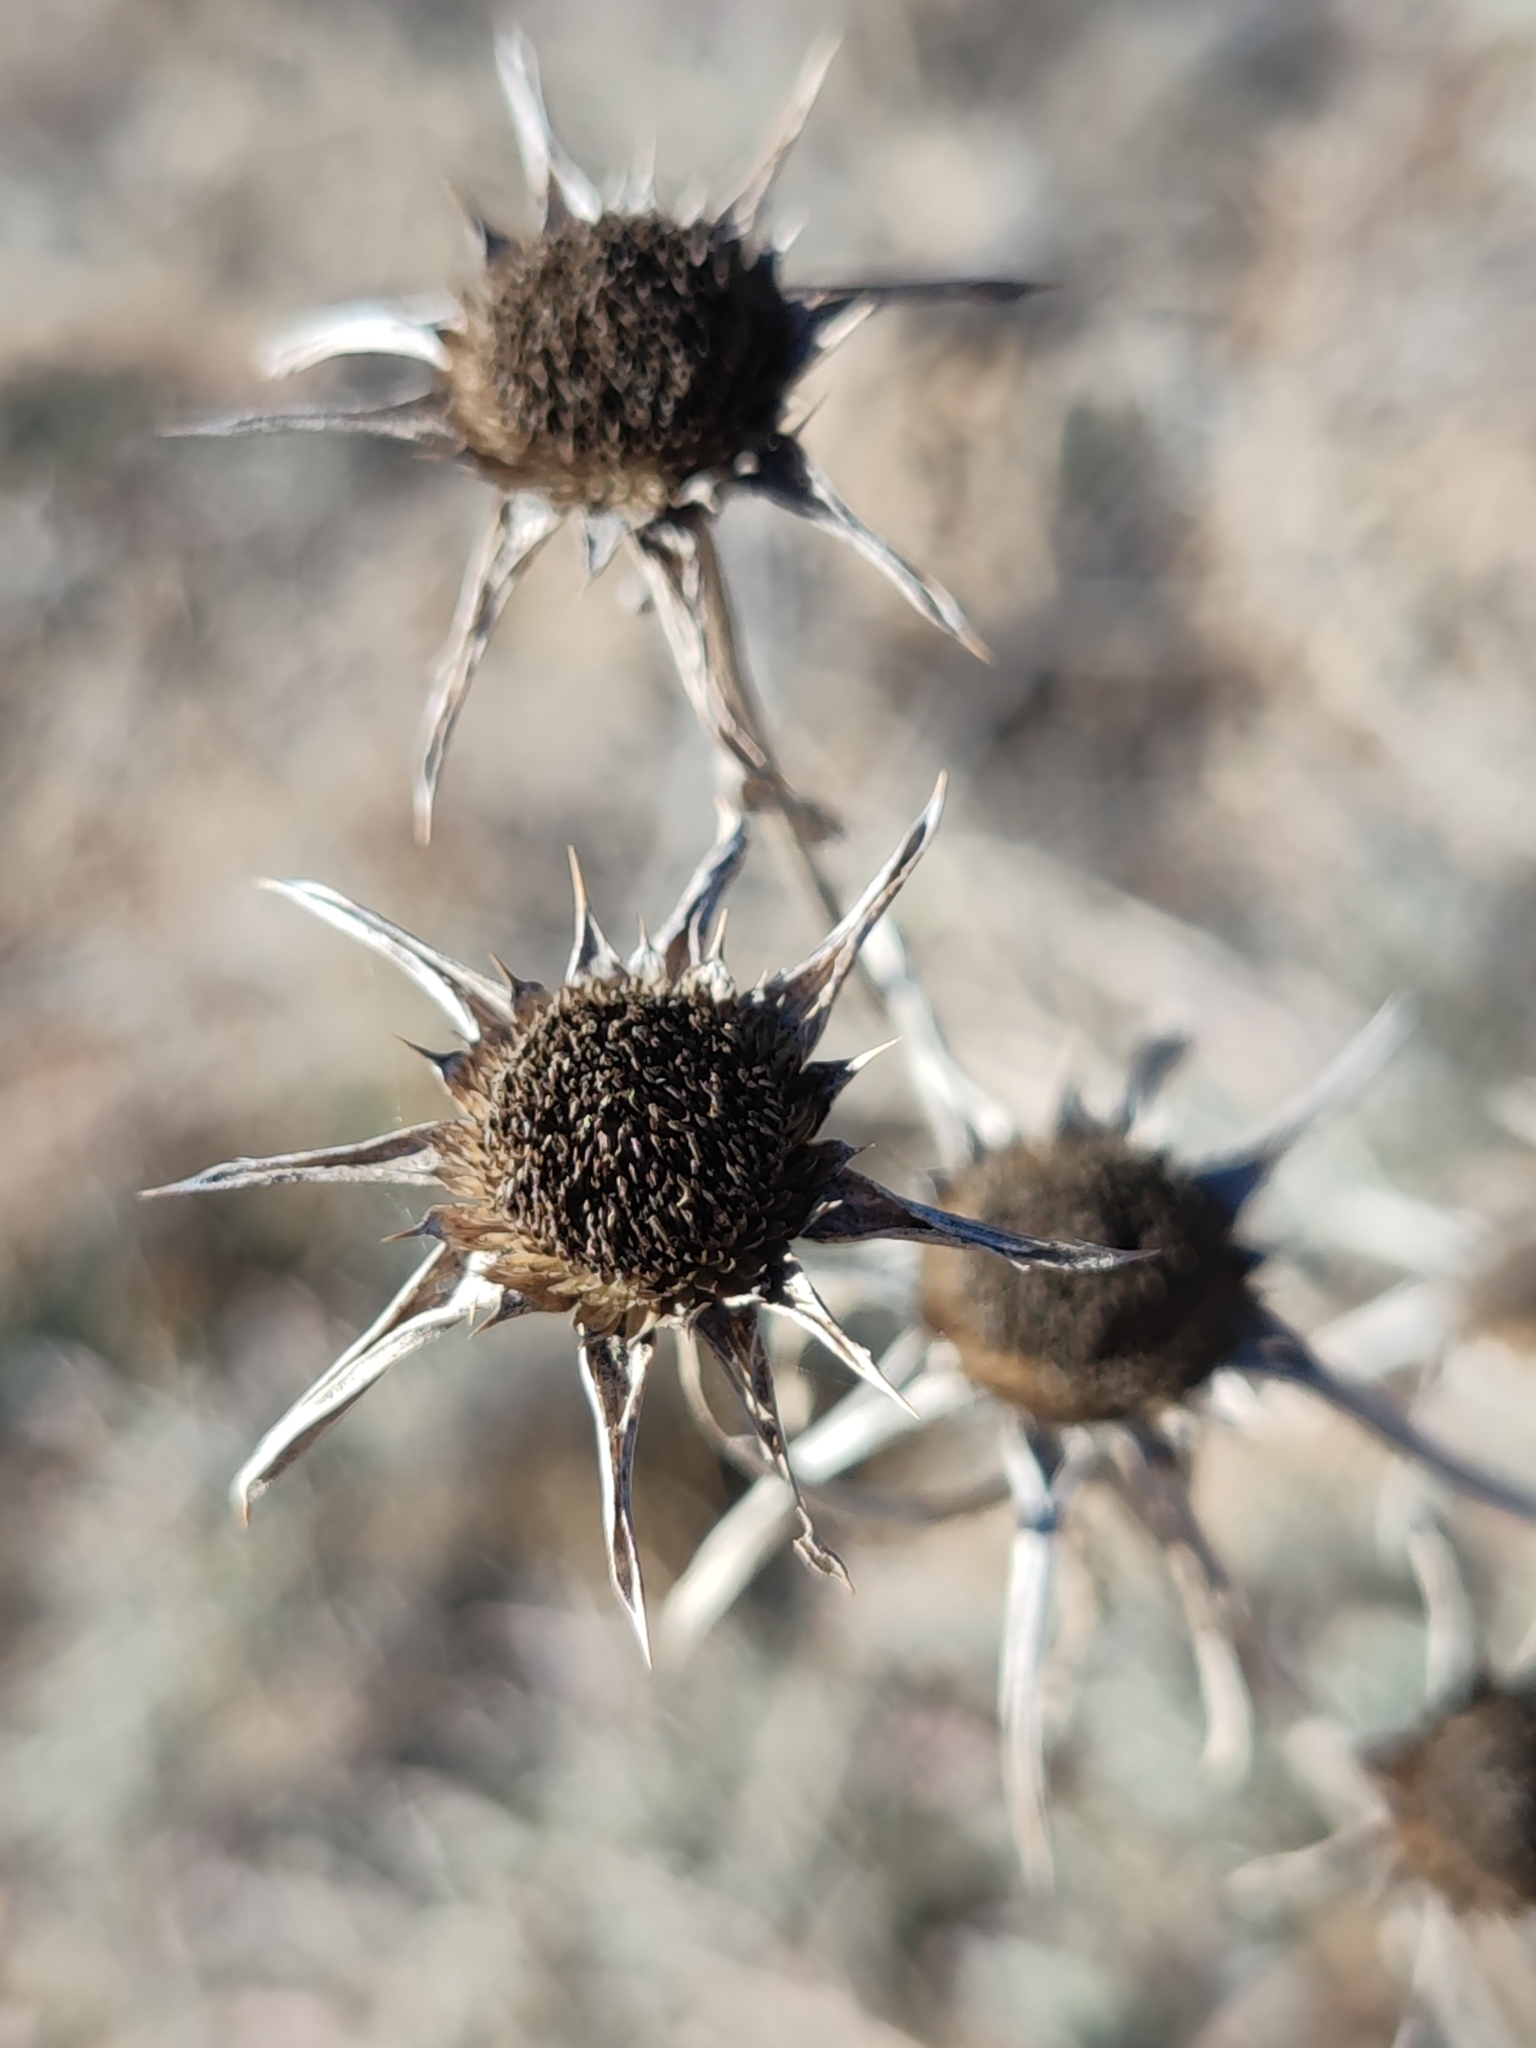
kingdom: Plantae
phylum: Tracheophyta
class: Magnoliopsida
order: Asterales
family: Asteraceae
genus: Pallenis
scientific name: Pallenis spinosa
